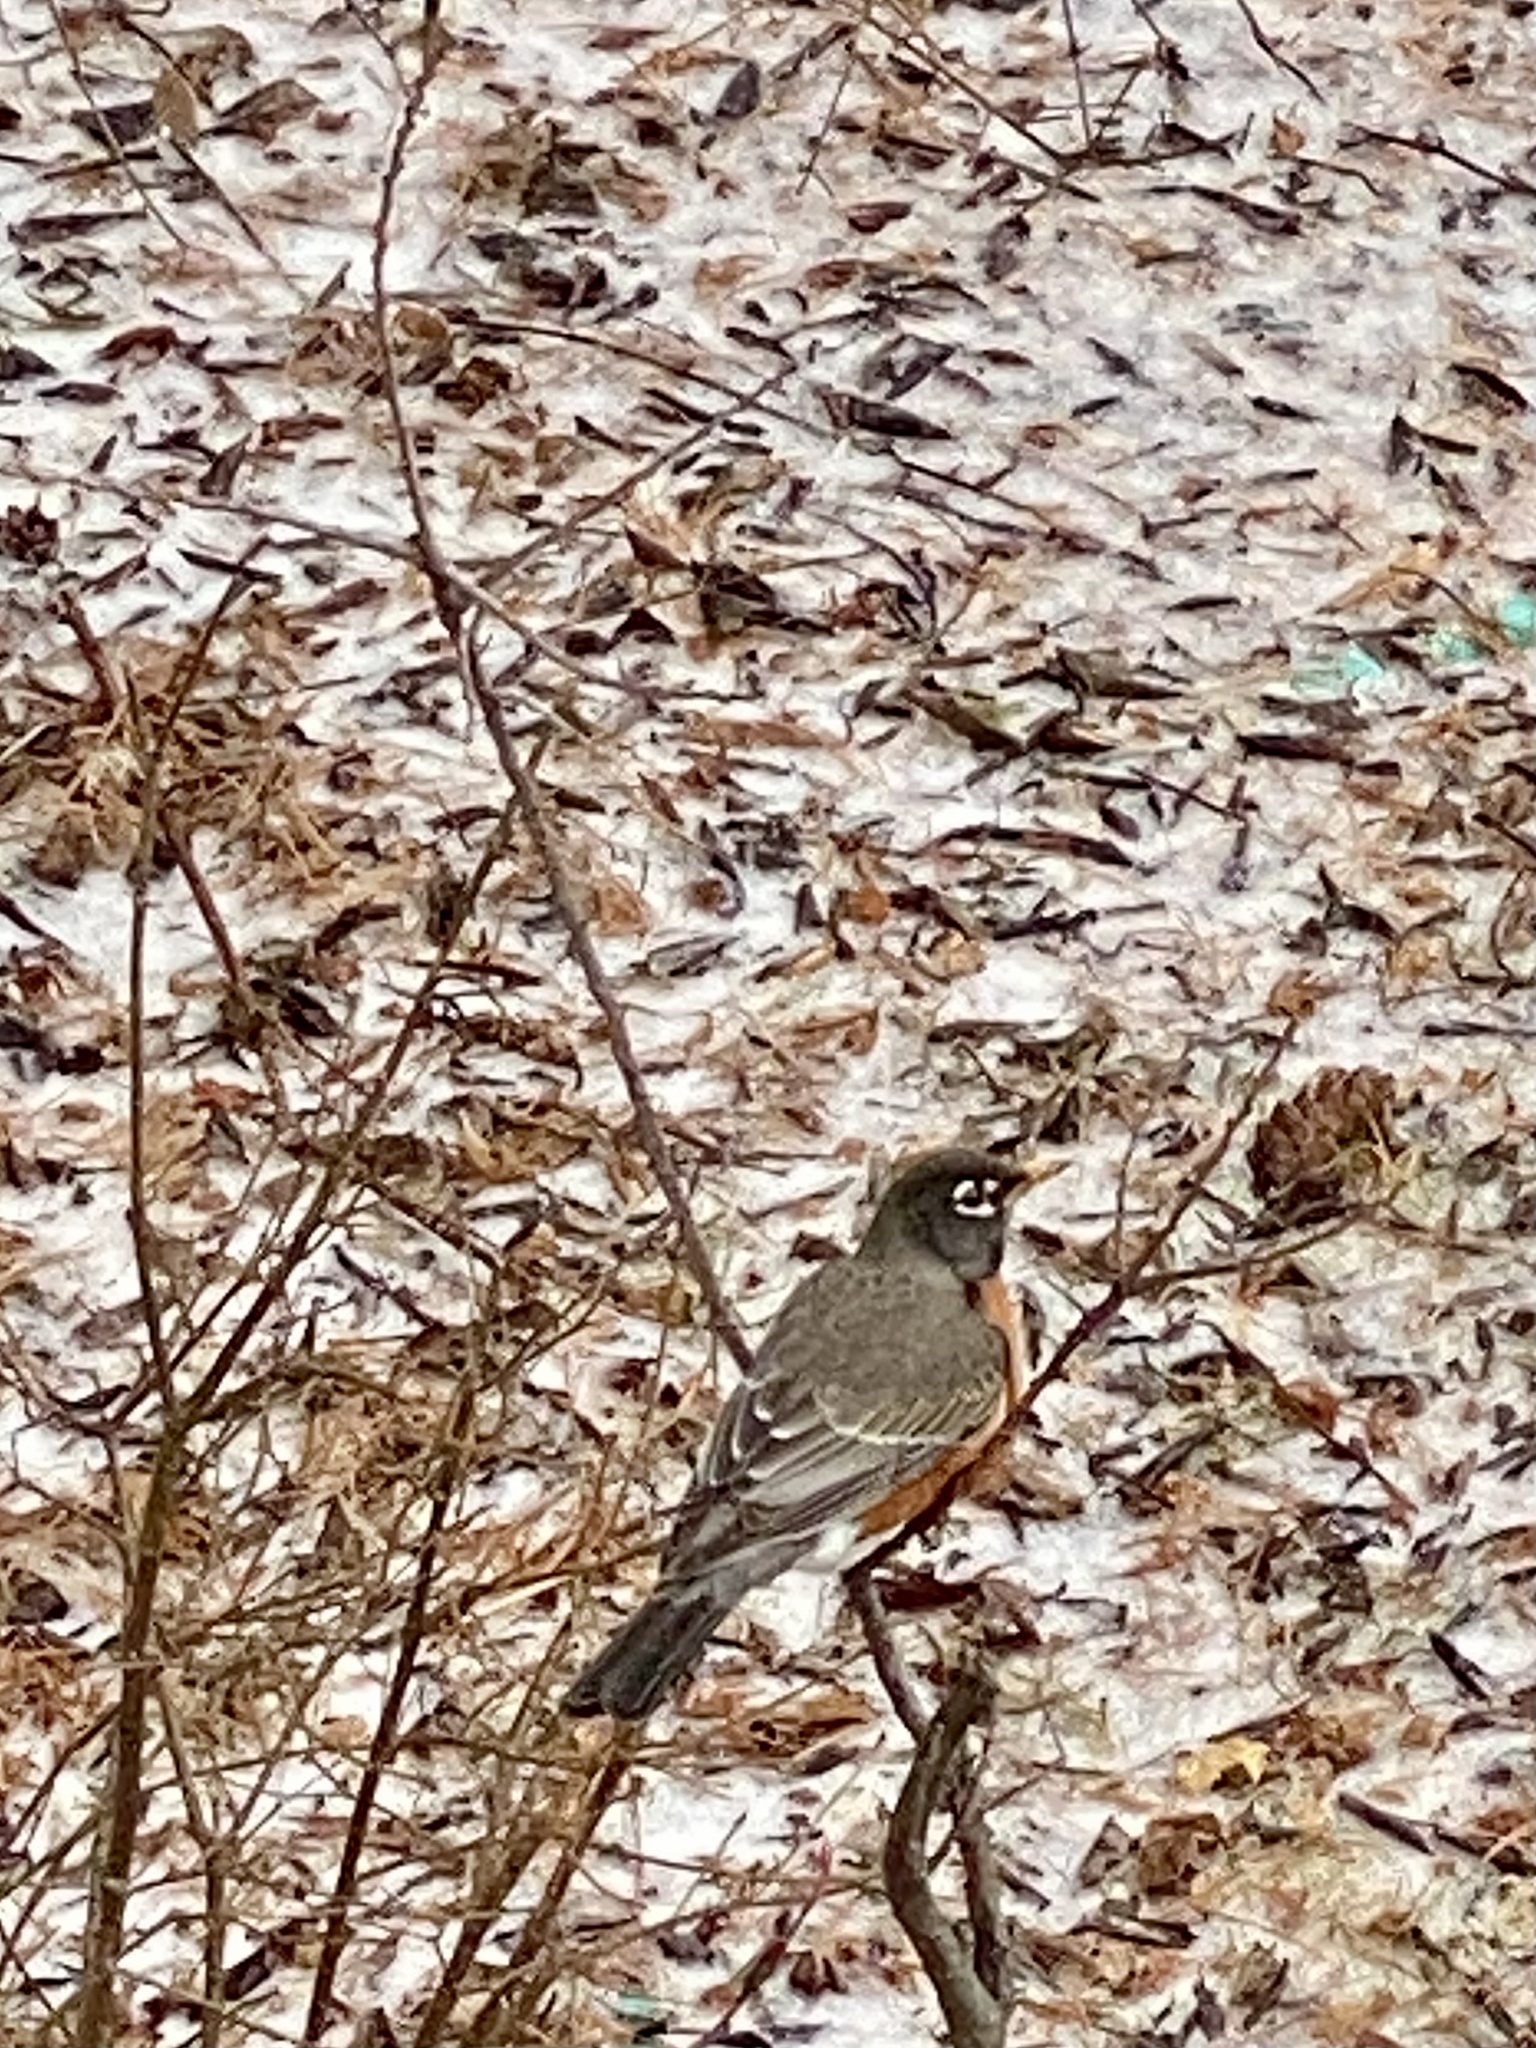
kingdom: Animalia
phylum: Chordata
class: Aves
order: Passeriformes
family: Turdidae
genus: Turdus
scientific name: Turdus migratorius
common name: American robin
